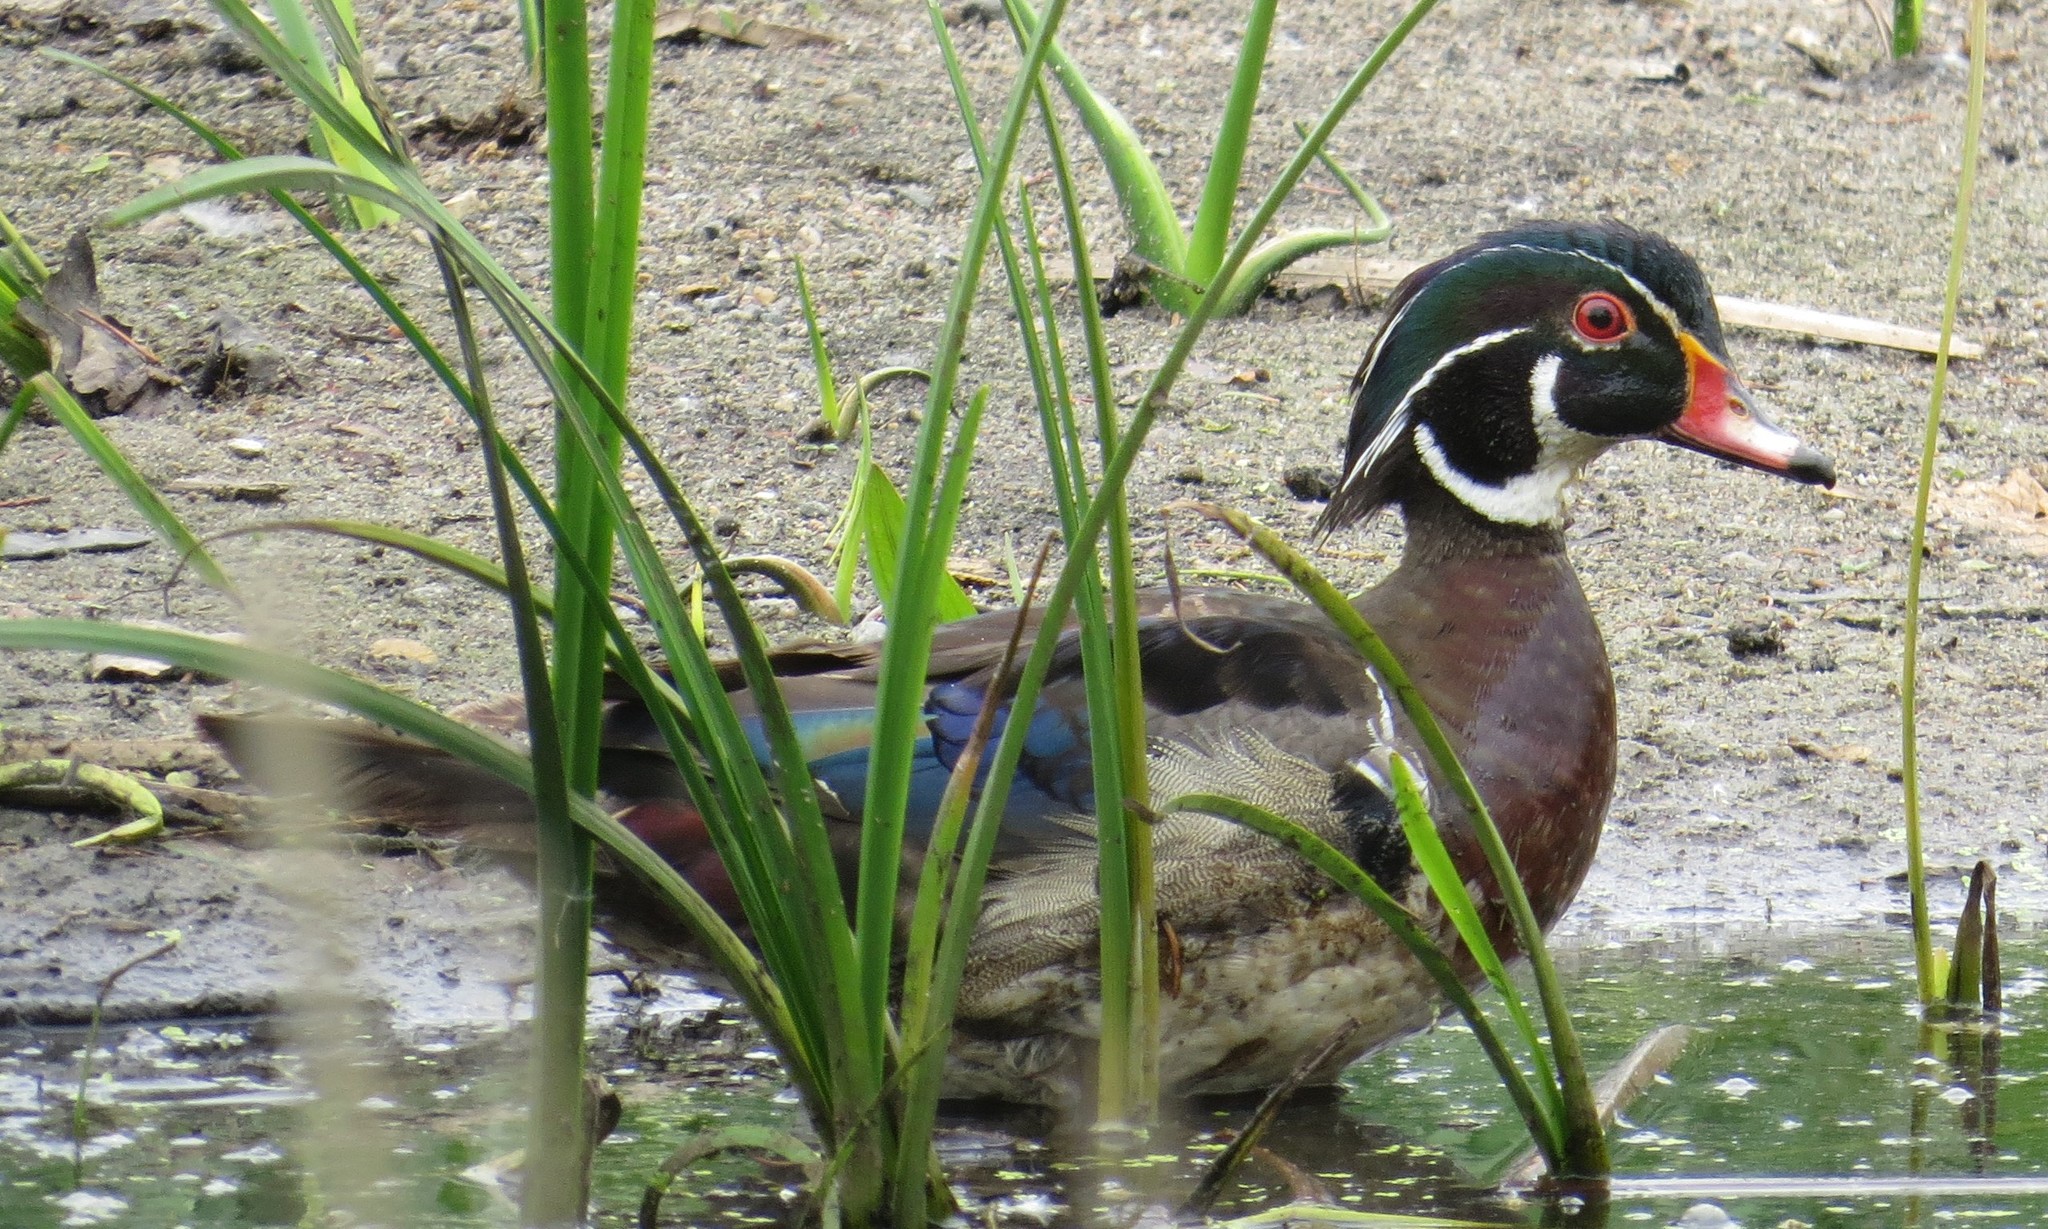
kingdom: Animalia
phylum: Chordata
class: Aves
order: Anseriformes
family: Anatidae
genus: Aix
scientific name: Aix sponsa
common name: Wood duck
